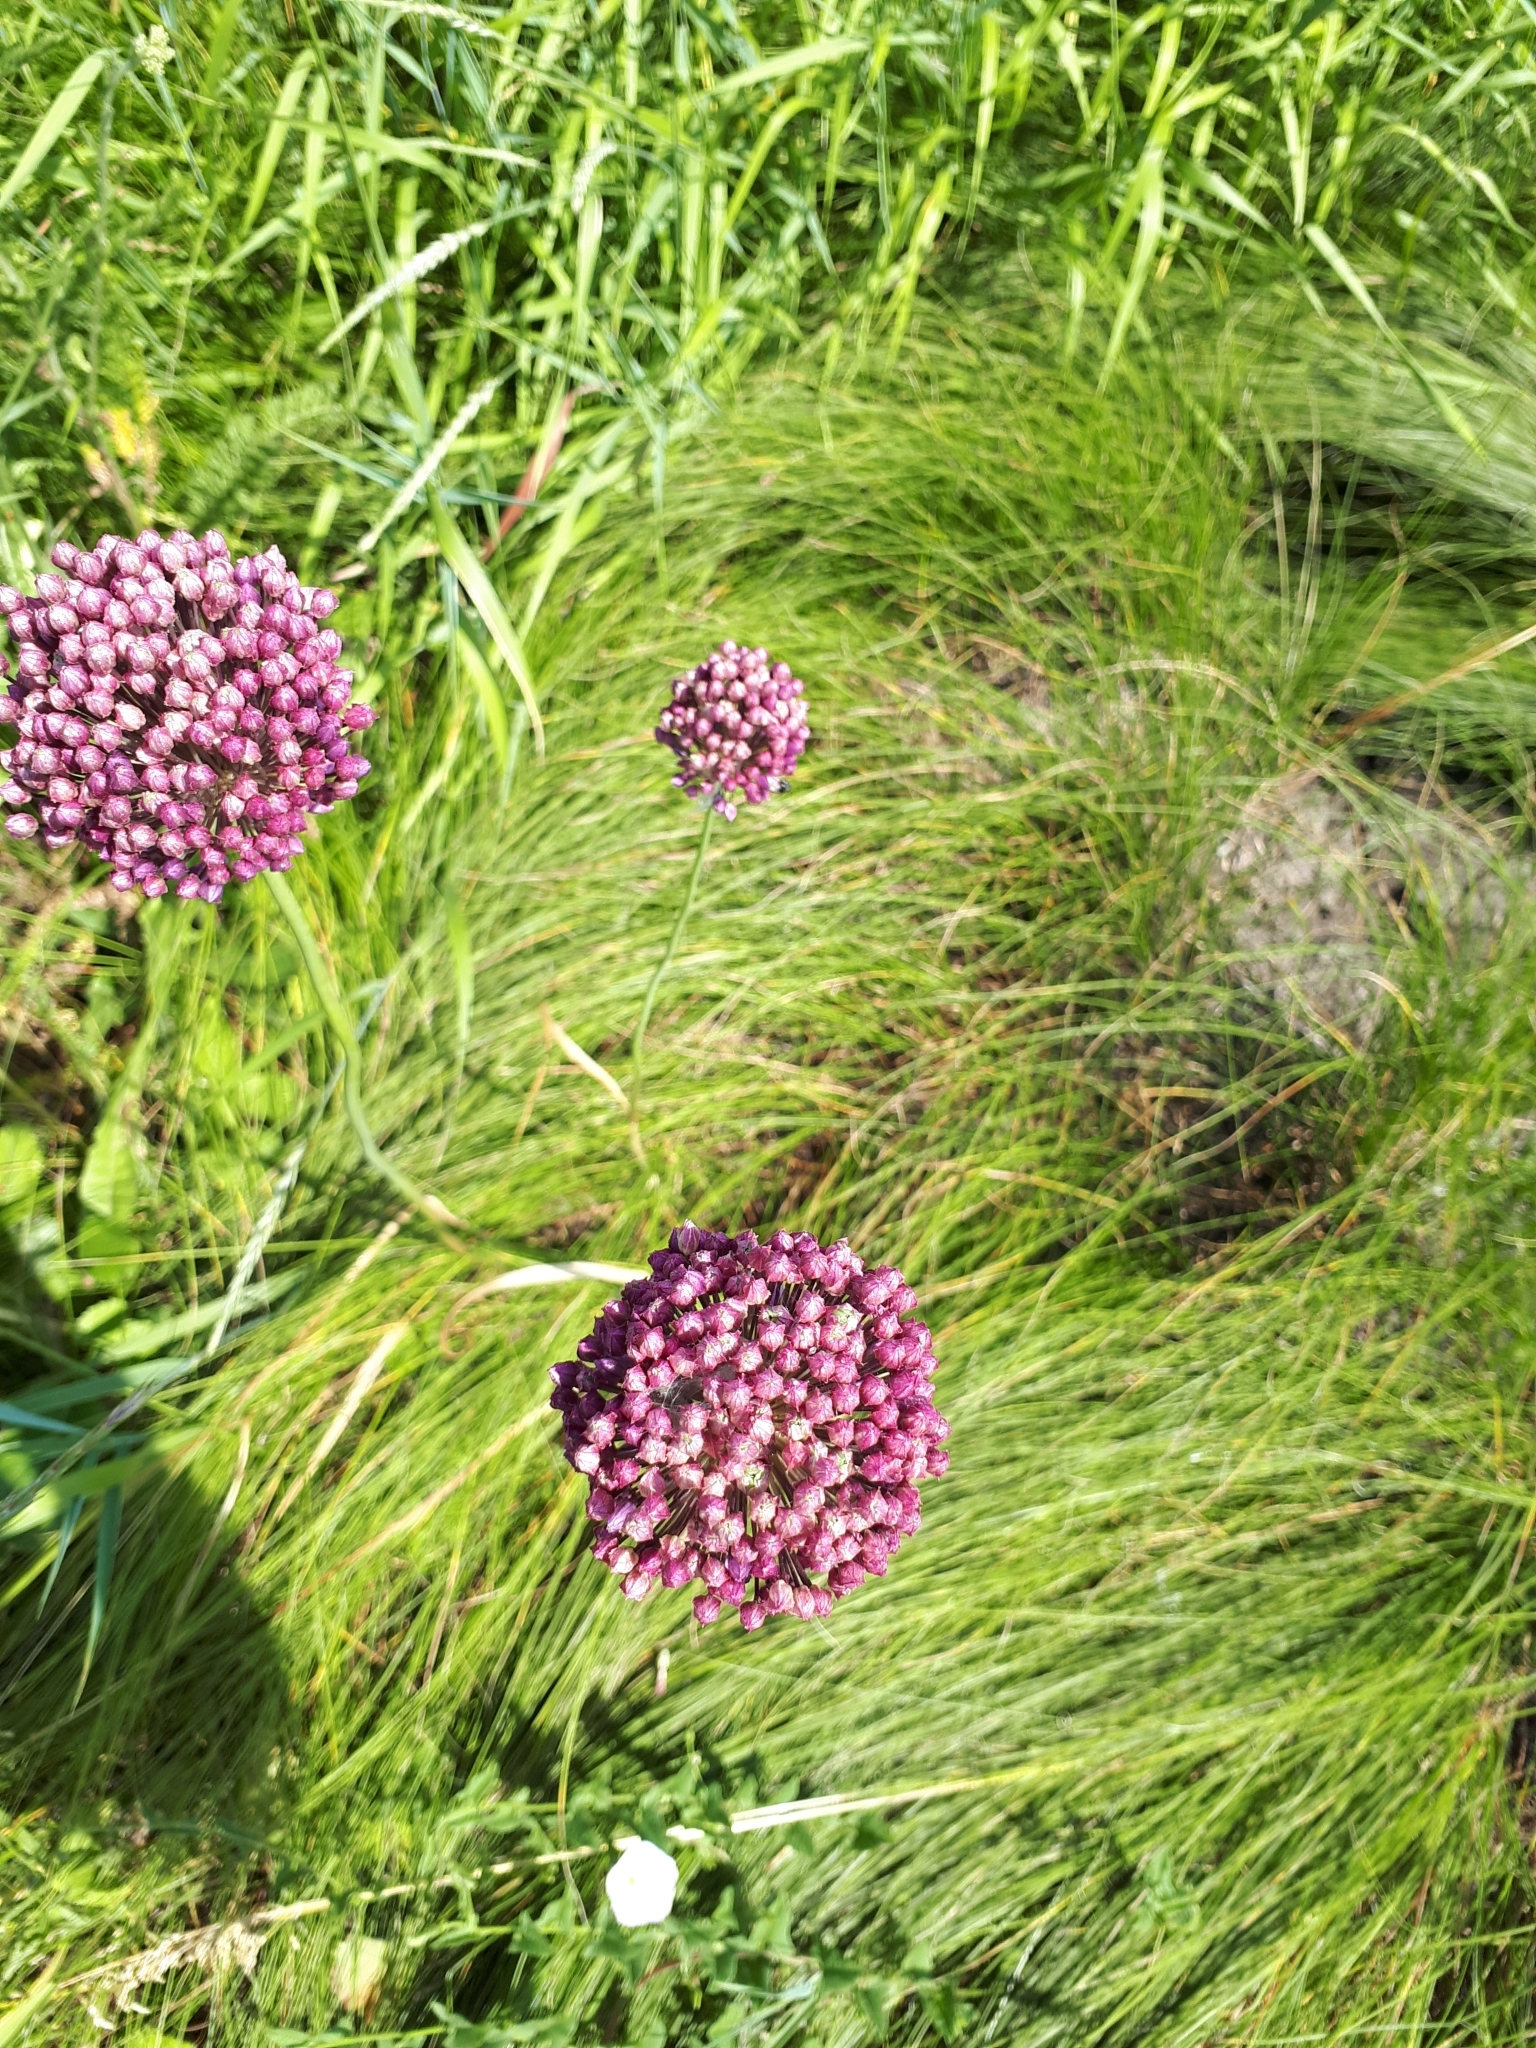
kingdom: Plantae
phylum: Tracheophyta
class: Liliopsida
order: Asparagales
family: Amaryllidaceae
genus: Allium
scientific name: Allium rotundum
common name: Sand leek
